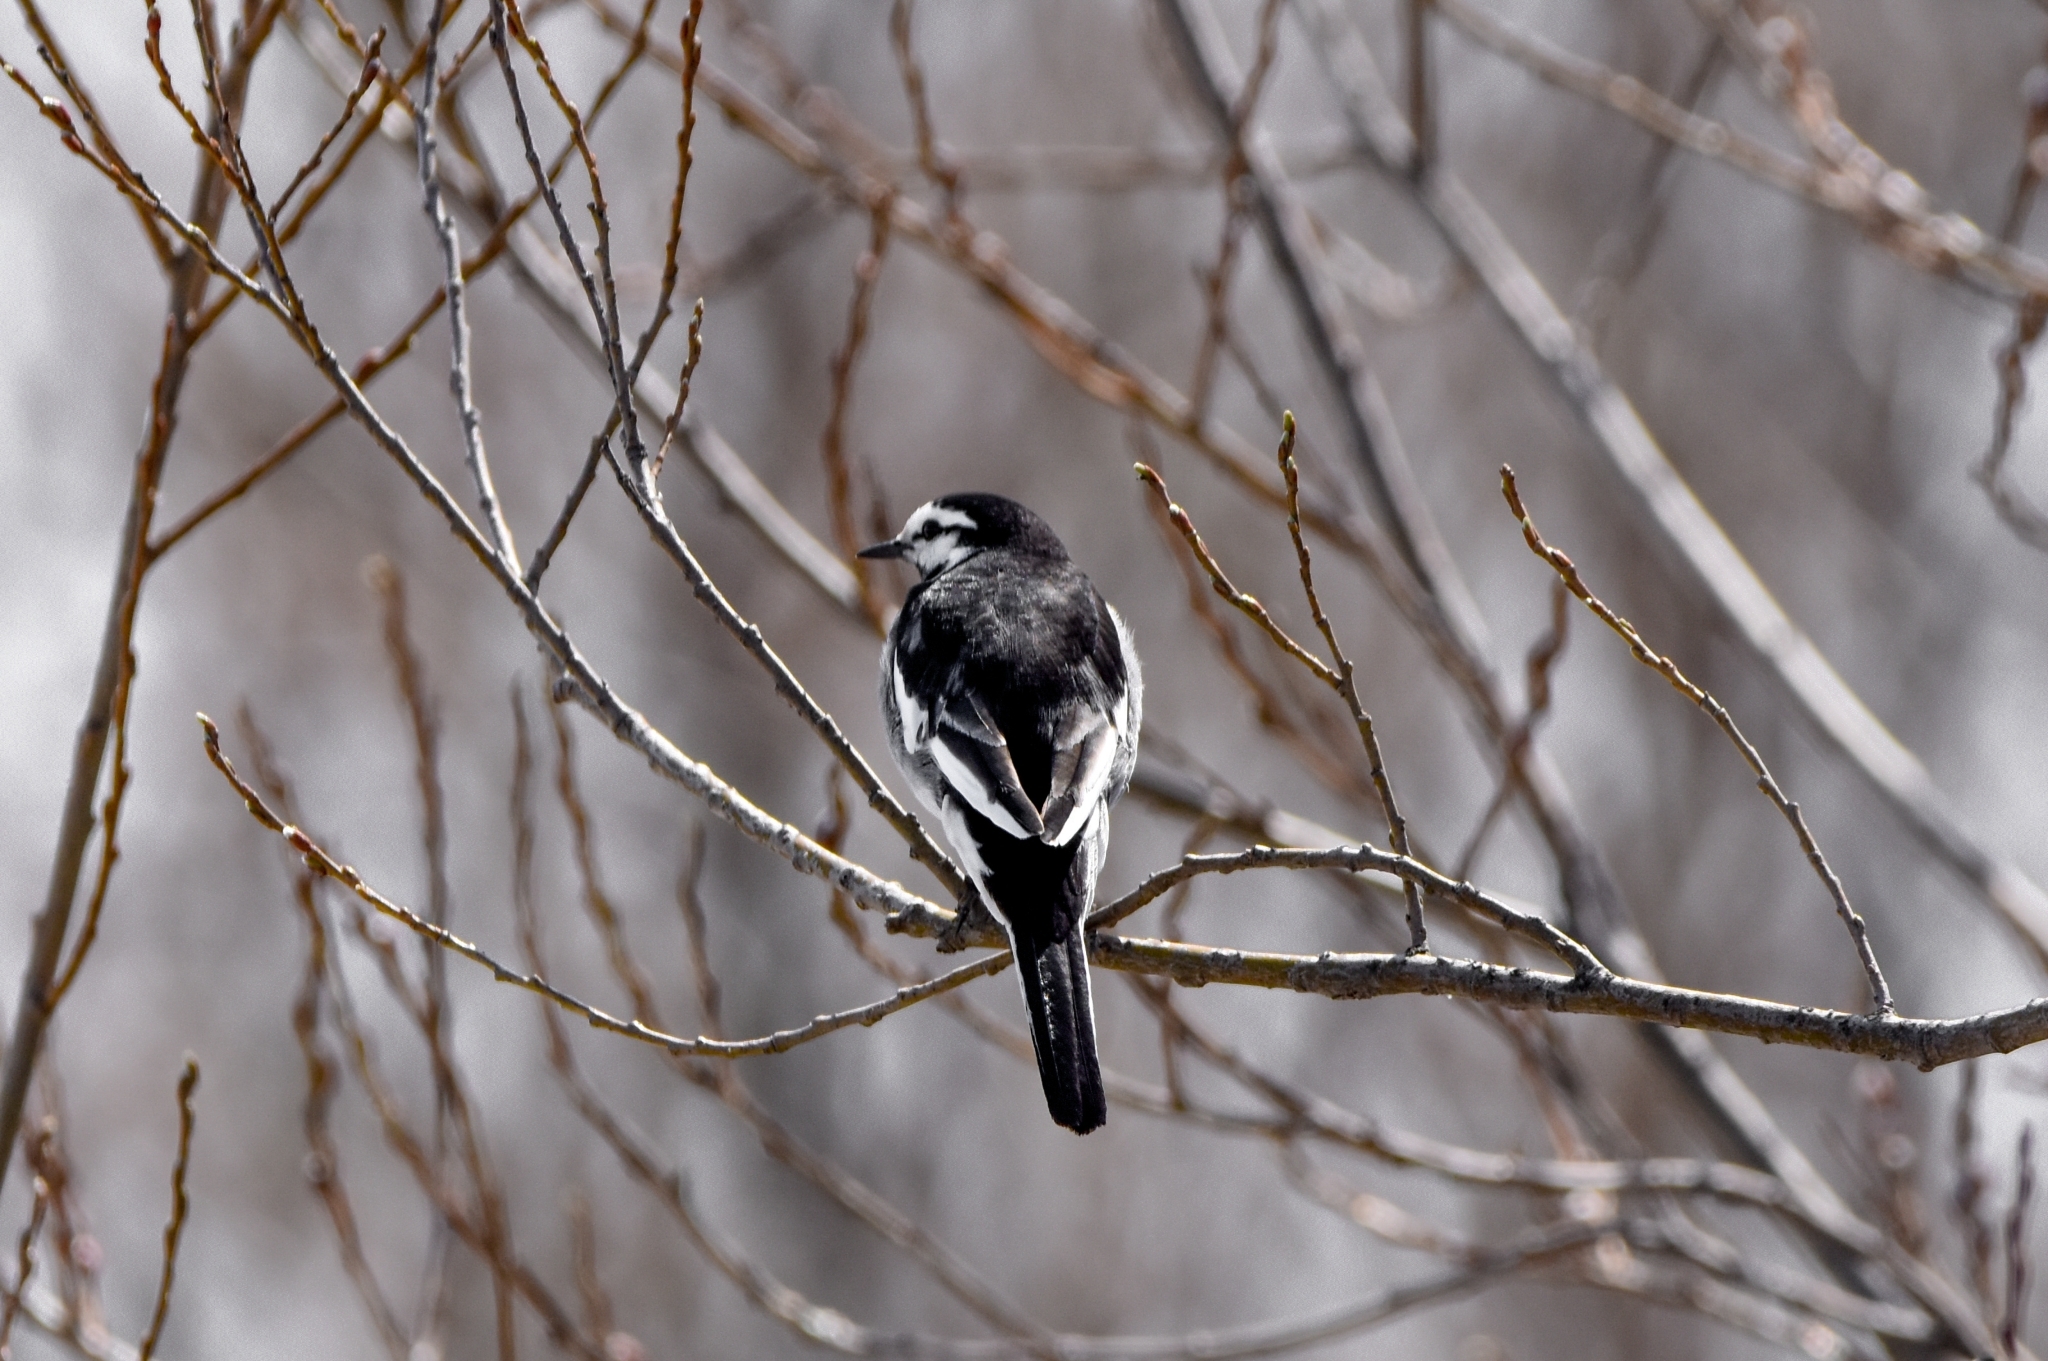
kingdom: Animalia
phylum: Chordata
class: Aves
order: Passeriformes
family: Motacillidae
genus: Motacilla
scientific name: Motacilla alba
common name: White wagtail
